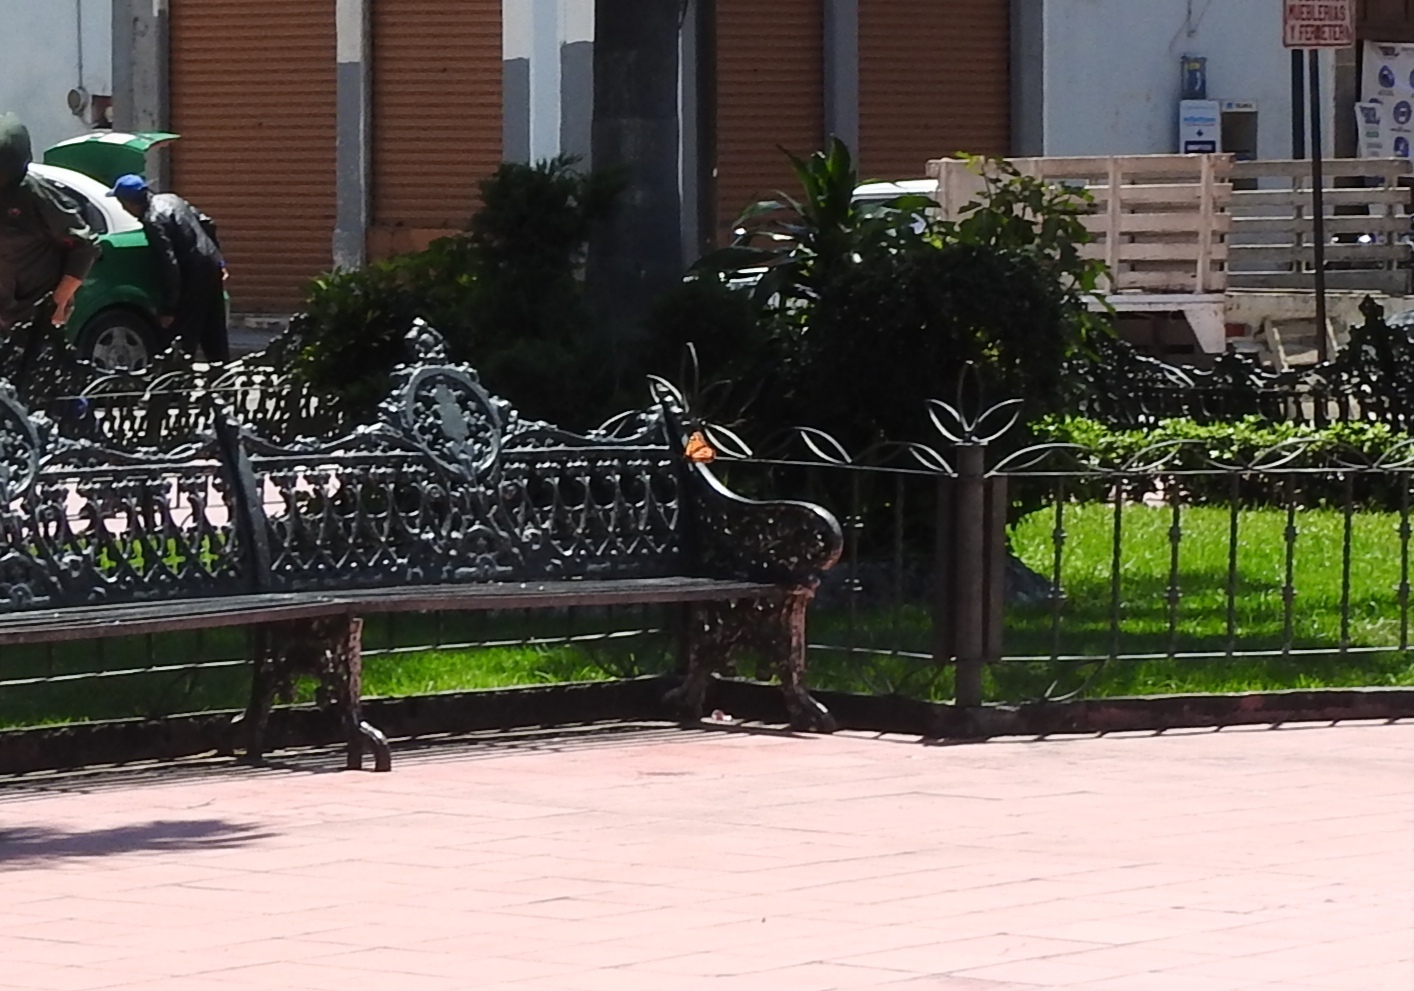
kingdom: Animalia
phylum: Arthropoda
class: Insecta
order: Lepidoptera
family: Nymphalidae
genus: Danaus
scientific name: Danaus plexippus
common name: Monarch
